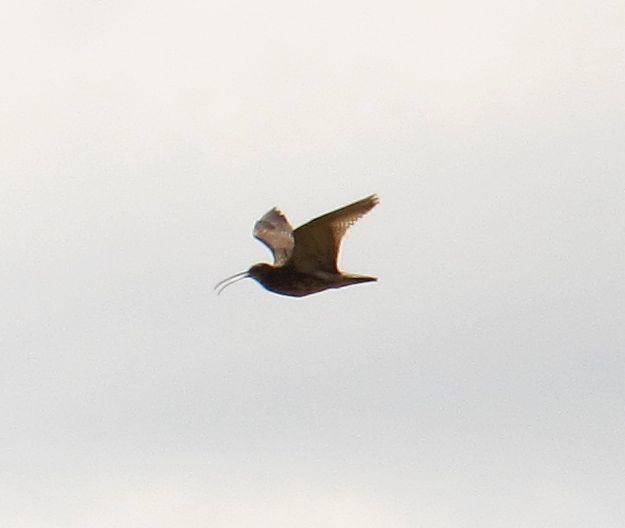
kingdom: Animalia
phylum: Chordata
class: Aves
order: Charadriiformes
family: Scolopacidae
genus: Numenius
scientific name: Numenius arquata
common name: Eurasian curlew
